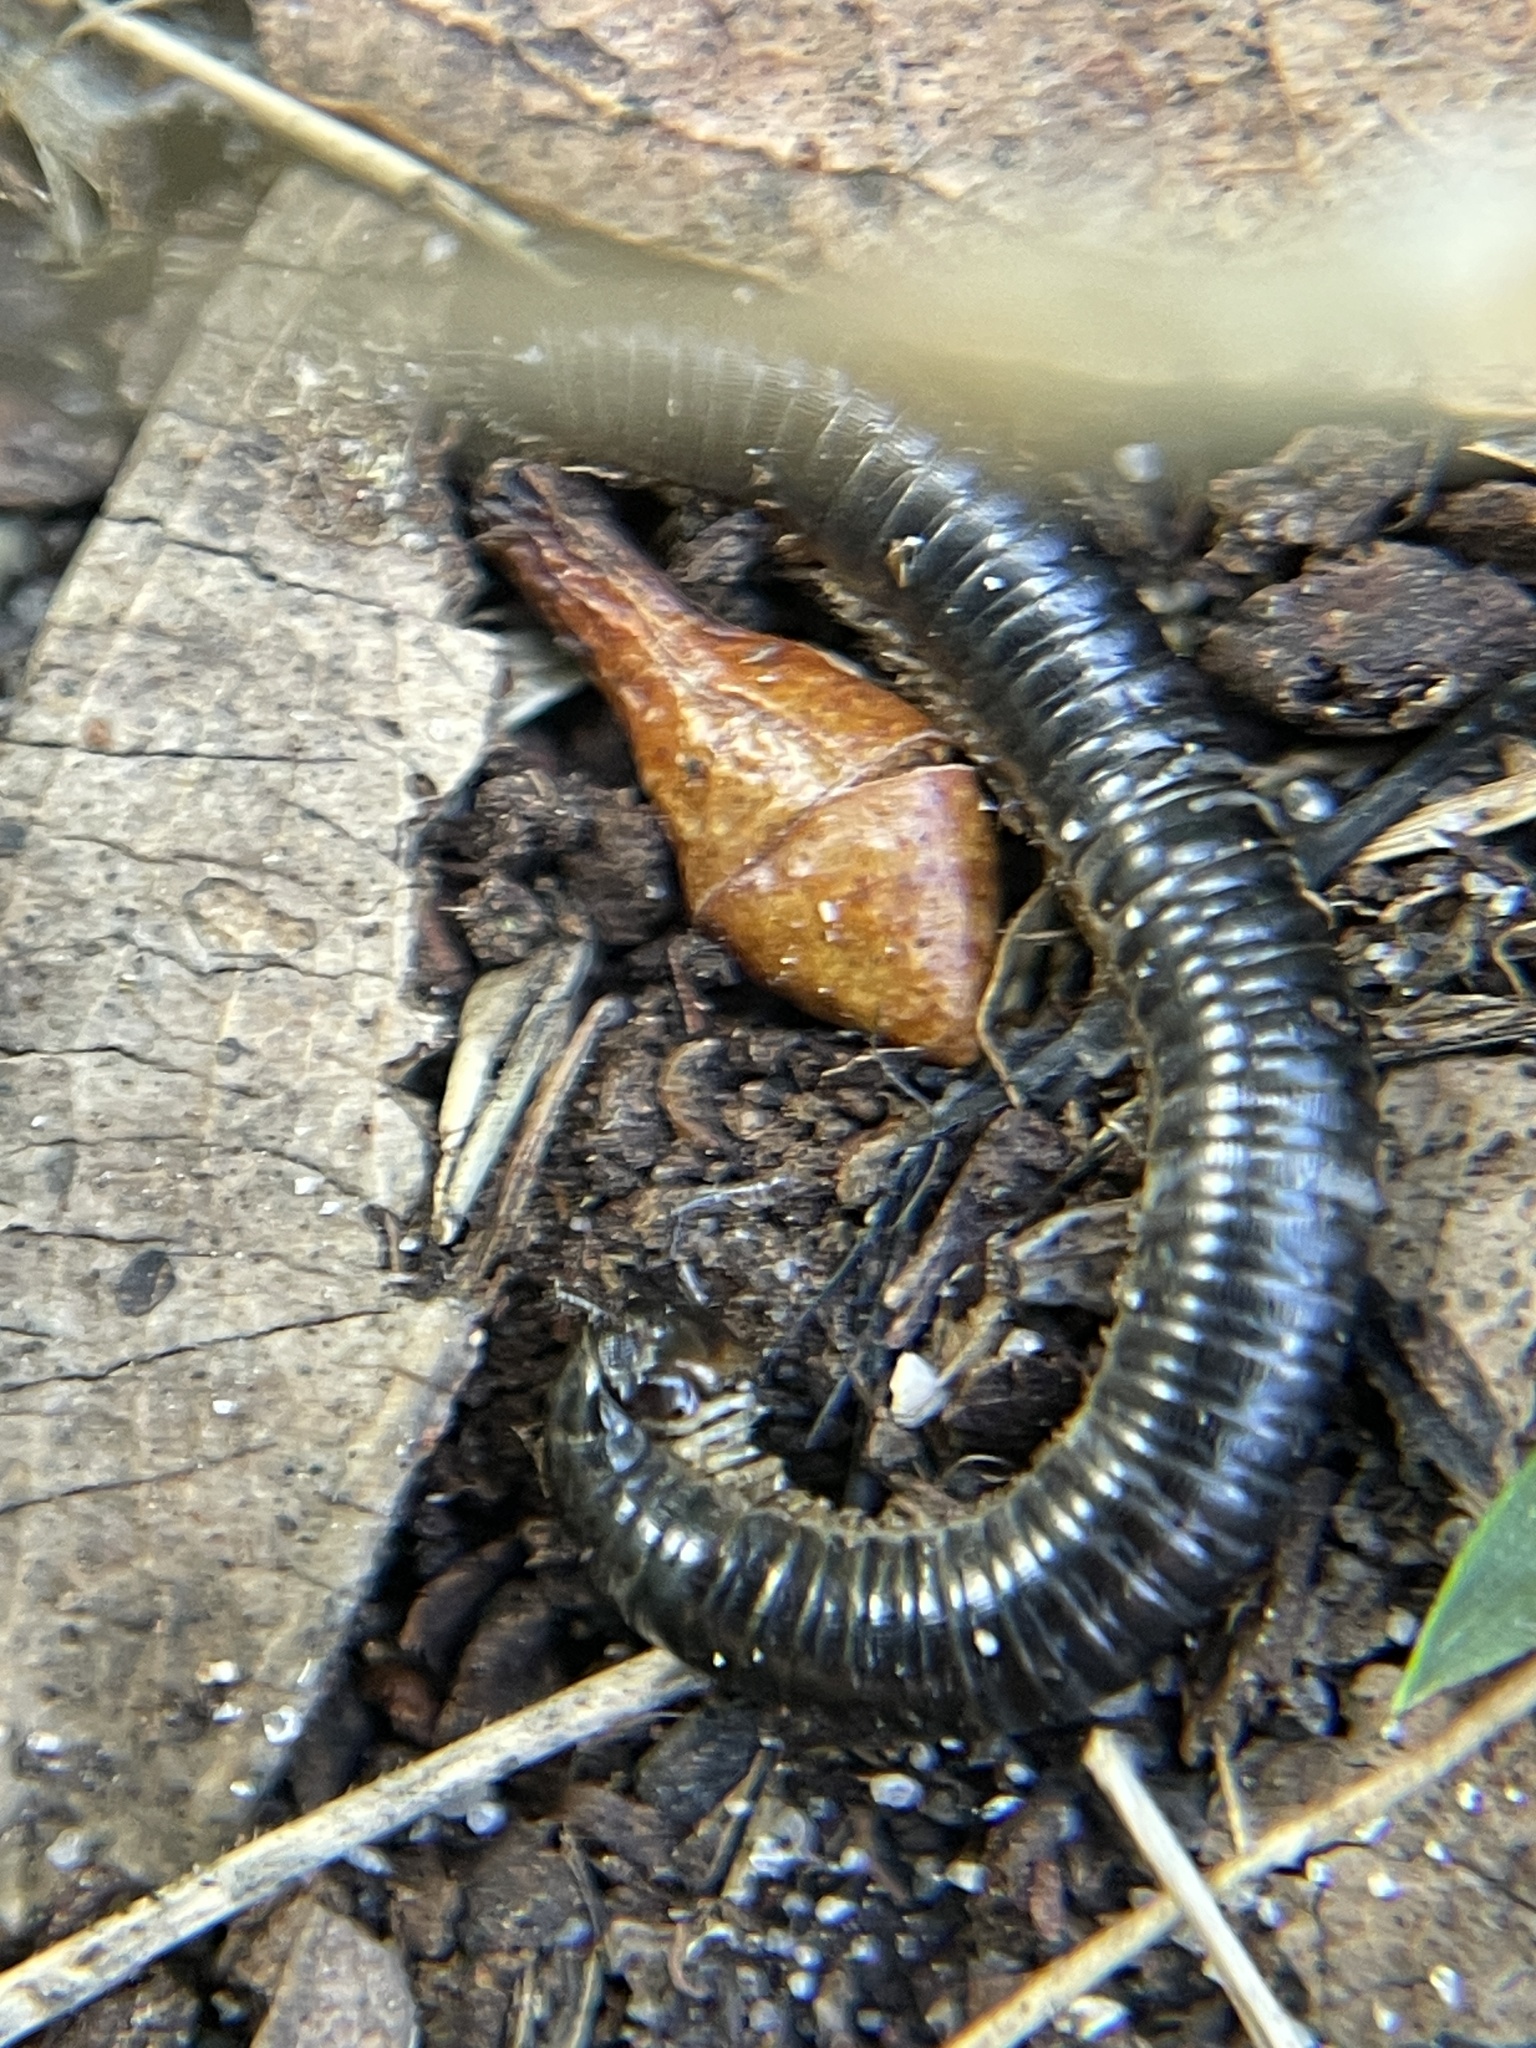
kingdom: Animalia
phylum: Arthropoda
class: Diplopoda
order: Julida
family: Julidae
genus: Ommatoiulus
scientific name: Ommatoiulus moreleti
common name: Portuguese millipede
